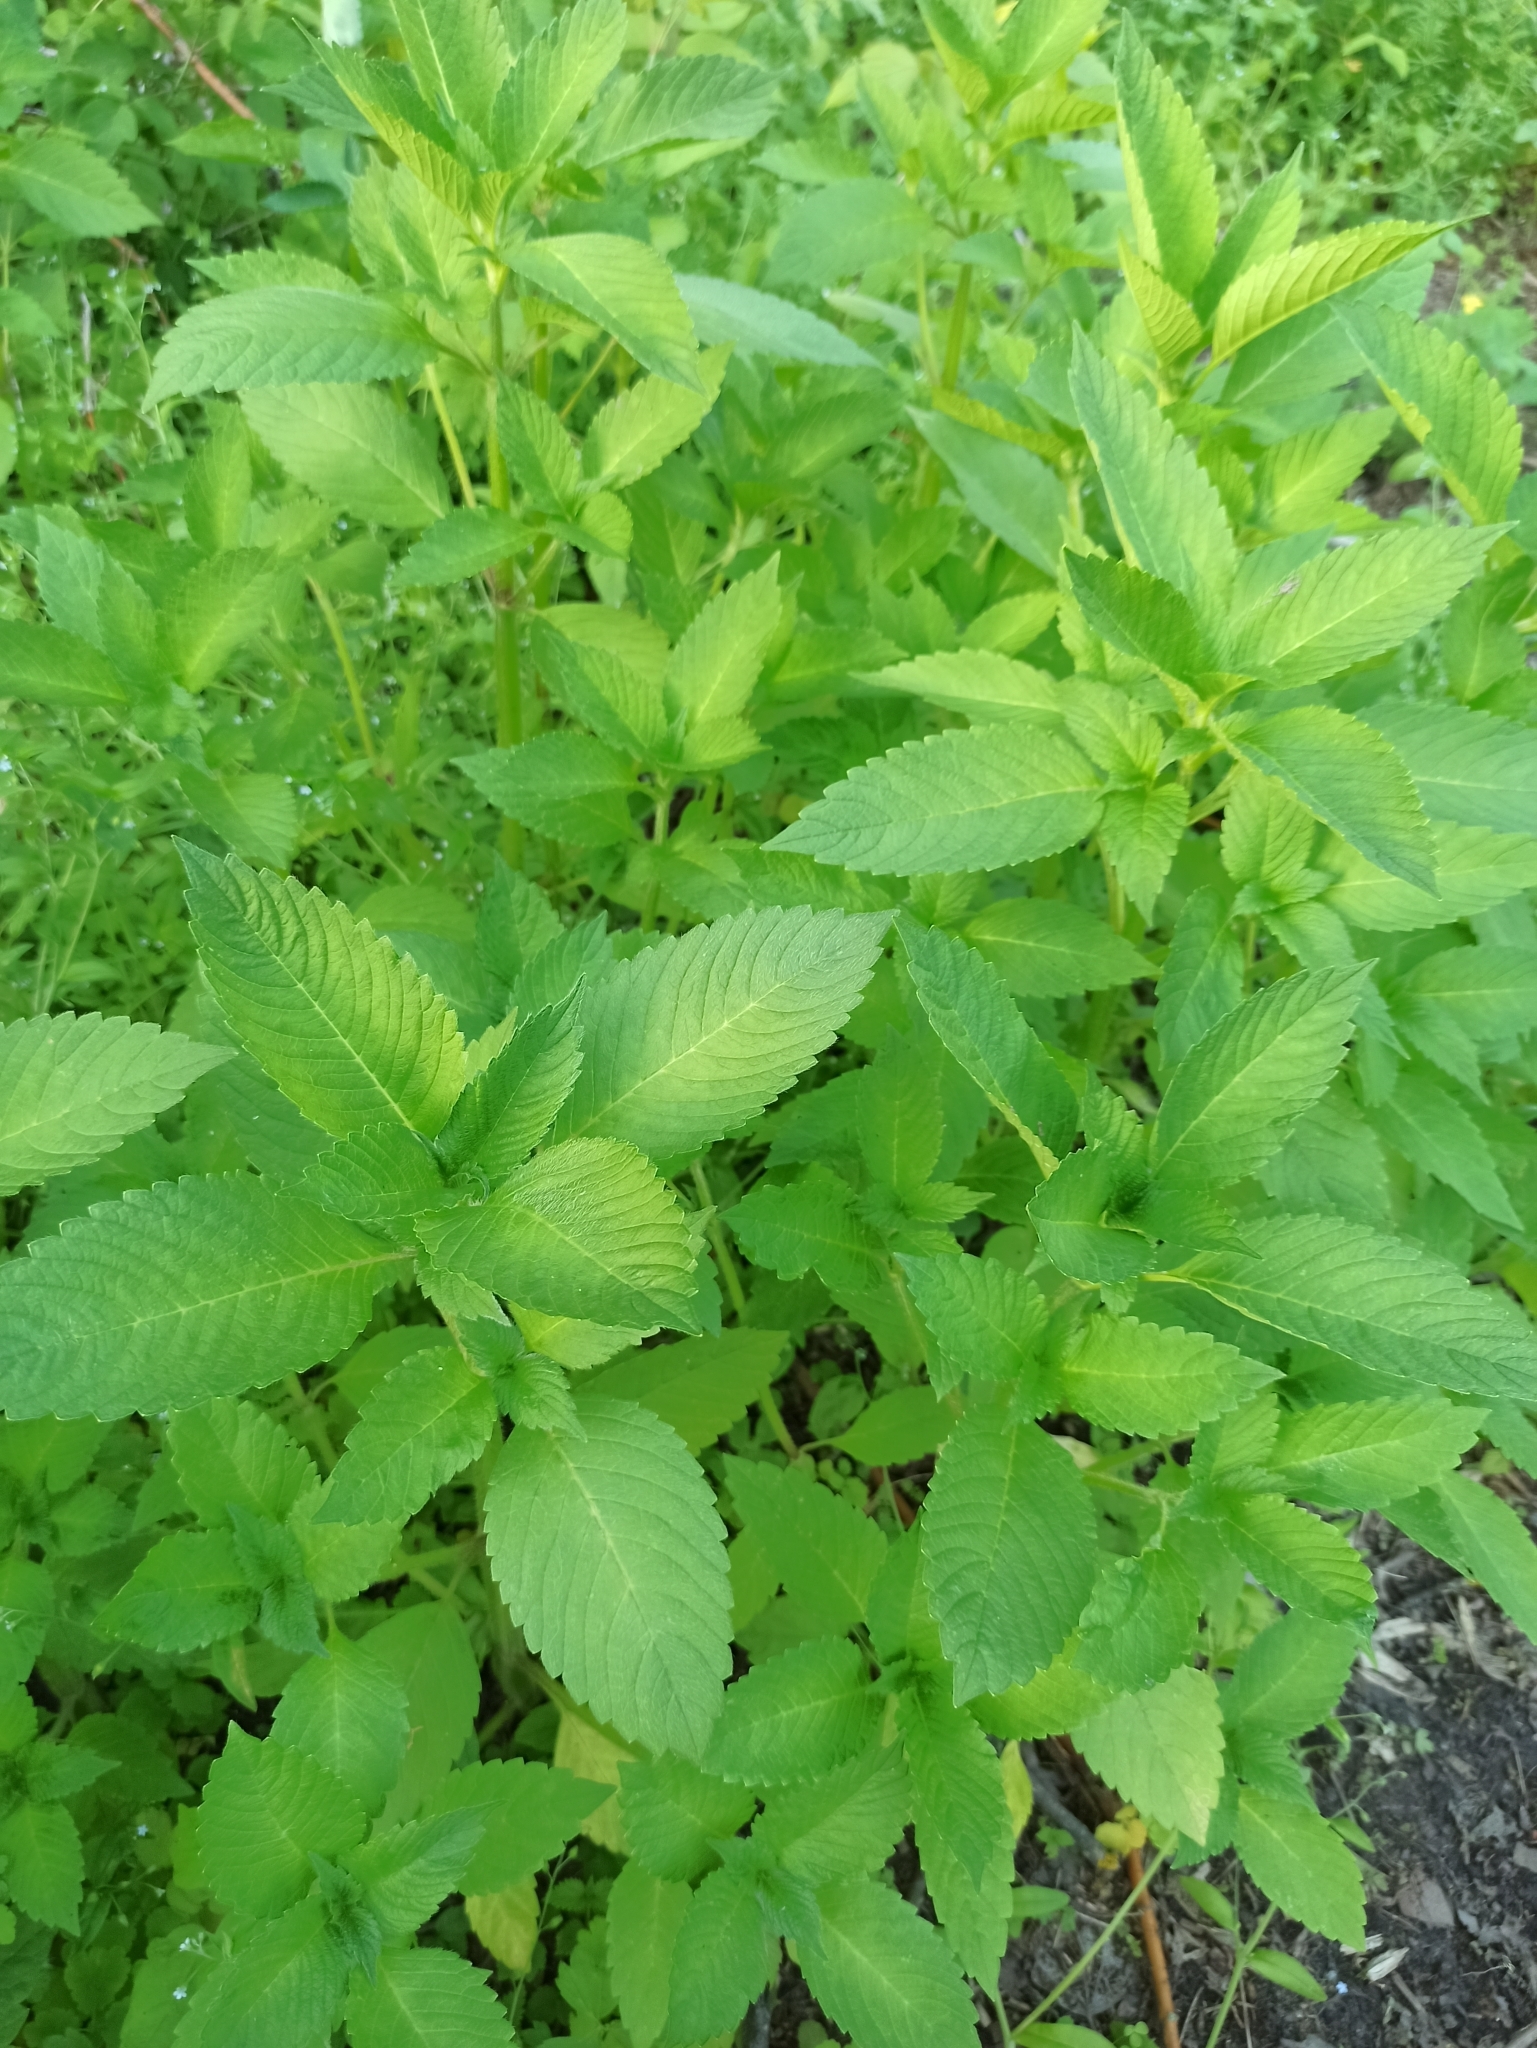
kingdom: Plantae
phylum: Tracheophyta
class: Magnoliopsida
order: Lamiales
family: Lamiaceae
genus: Galeopsis
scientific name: Galeopsis
